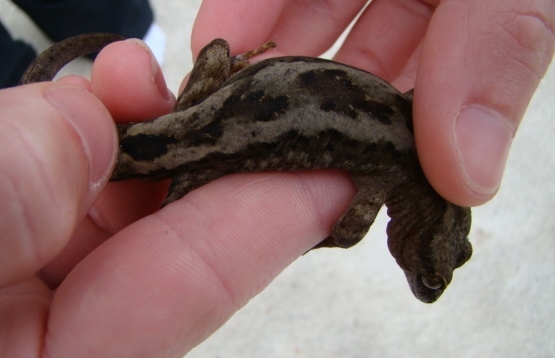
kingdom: Animalia
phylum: Chordata
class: Squamata
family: Diplodactylidae
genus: Woodworthia
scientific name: Woodworthia maculata
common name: Raukawa gecko
